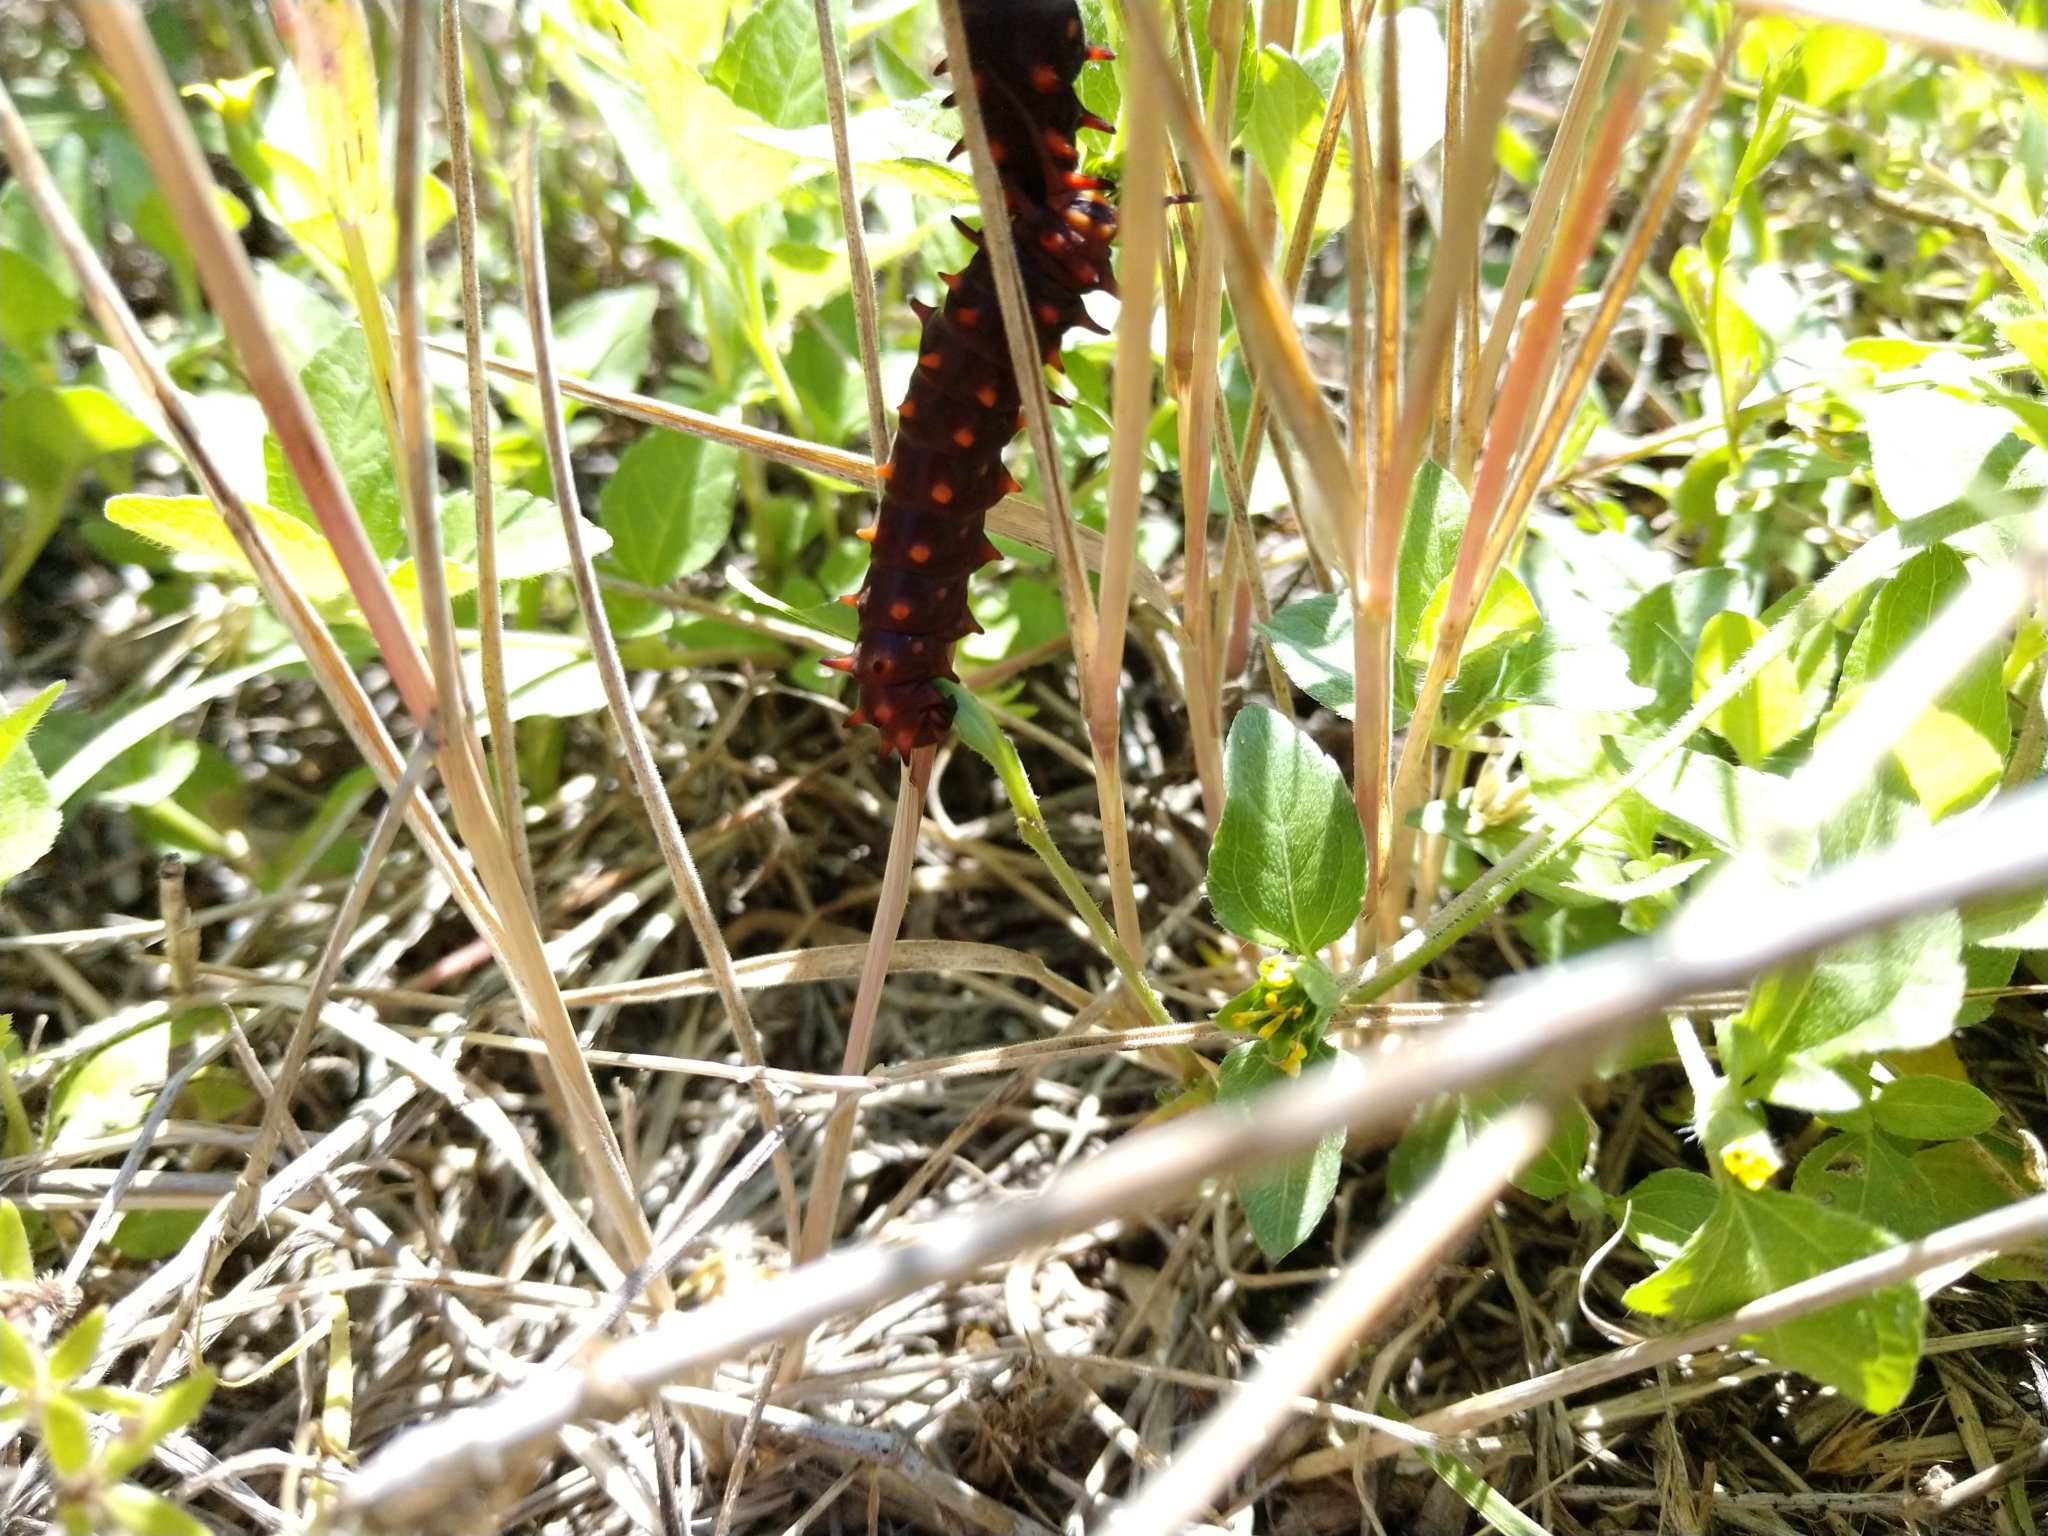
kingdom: Plantae
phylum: Tracheophyta
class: Magnoliopsida
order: Piperales
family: Aristolochiaceae
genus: Aristolochia
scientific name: Aristolochia erecta
